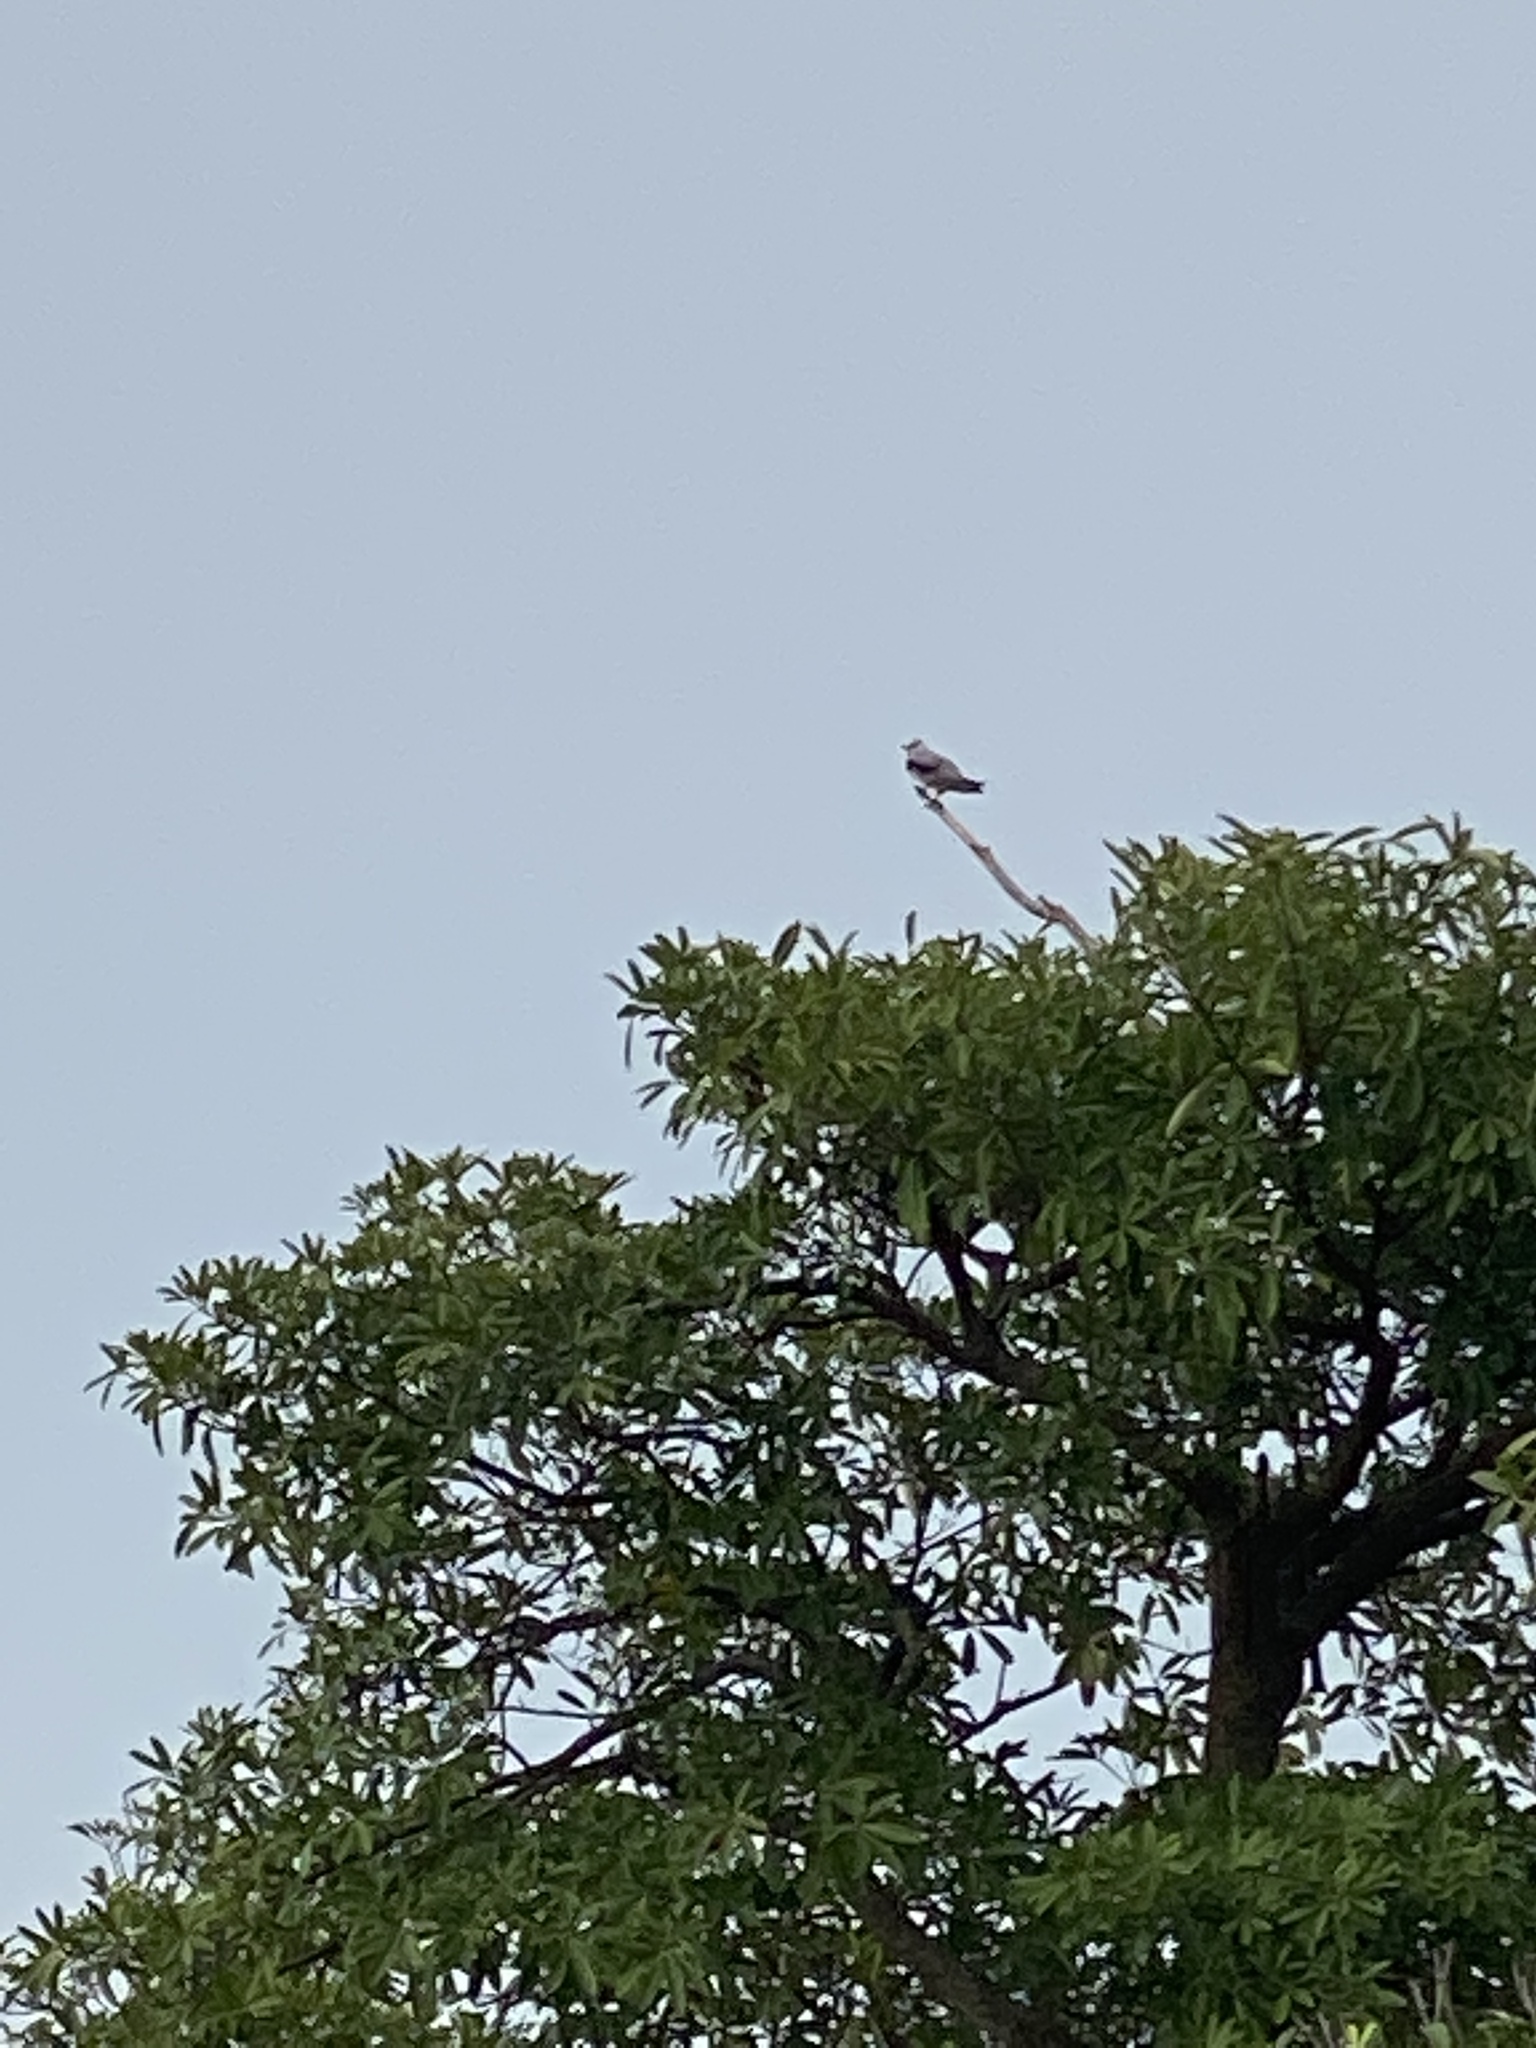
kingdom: Animalia
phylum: Chordata
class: Aves
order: Accipitriformes
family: Accipitridae
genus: Elanus
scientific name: Elanus caeruleus
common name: Black-winged kite
